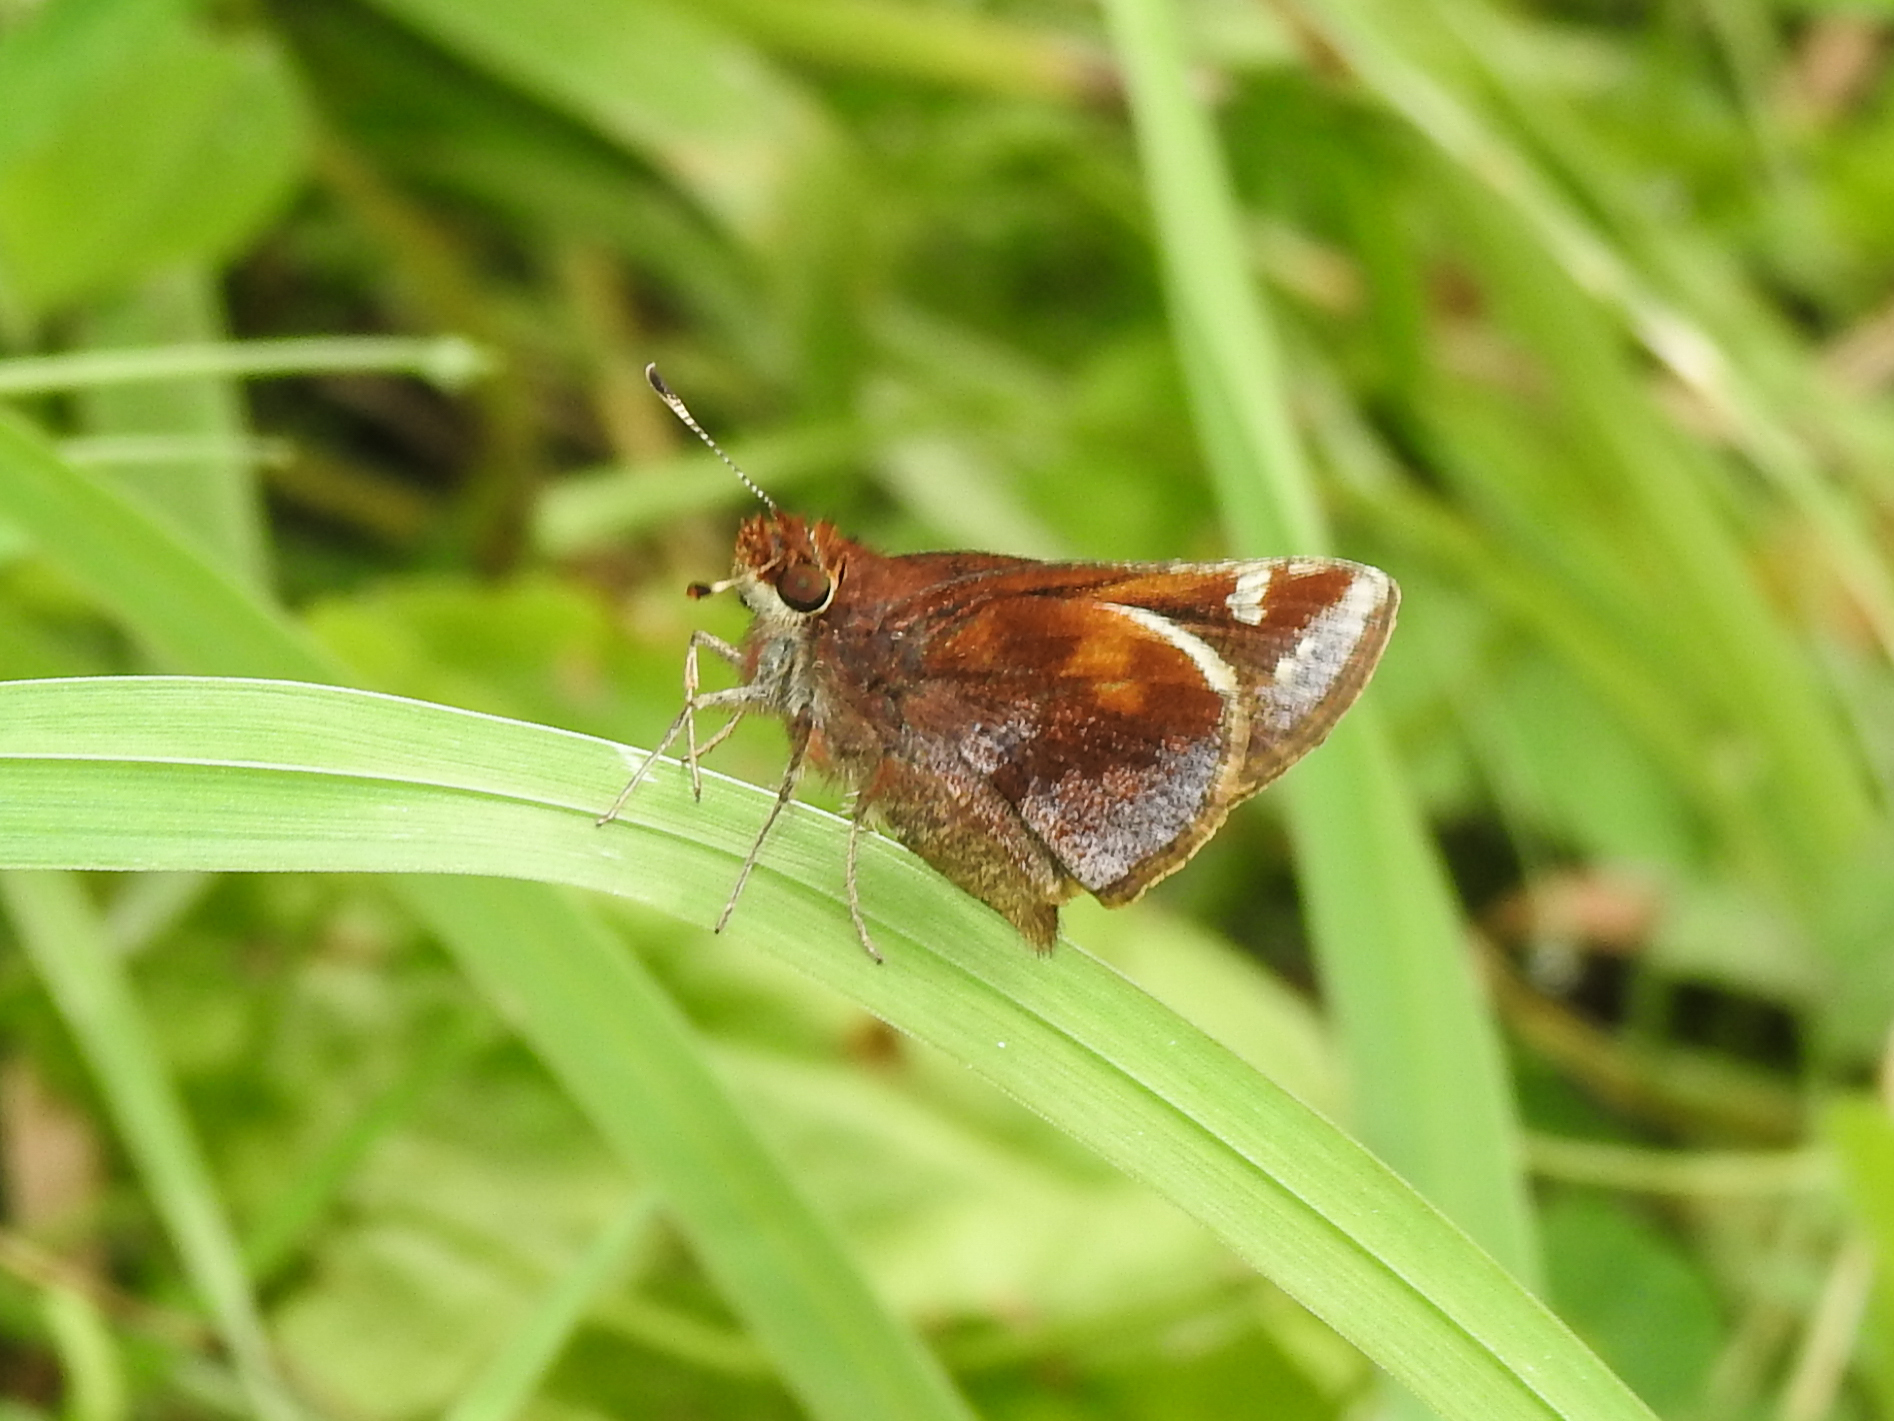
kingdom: Animalia
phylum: Arthropoda
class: Insecta
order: Lepidoptera
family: Hesperiidae
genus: Lon
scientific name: Lon zabulon
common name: Zabulon skipper
